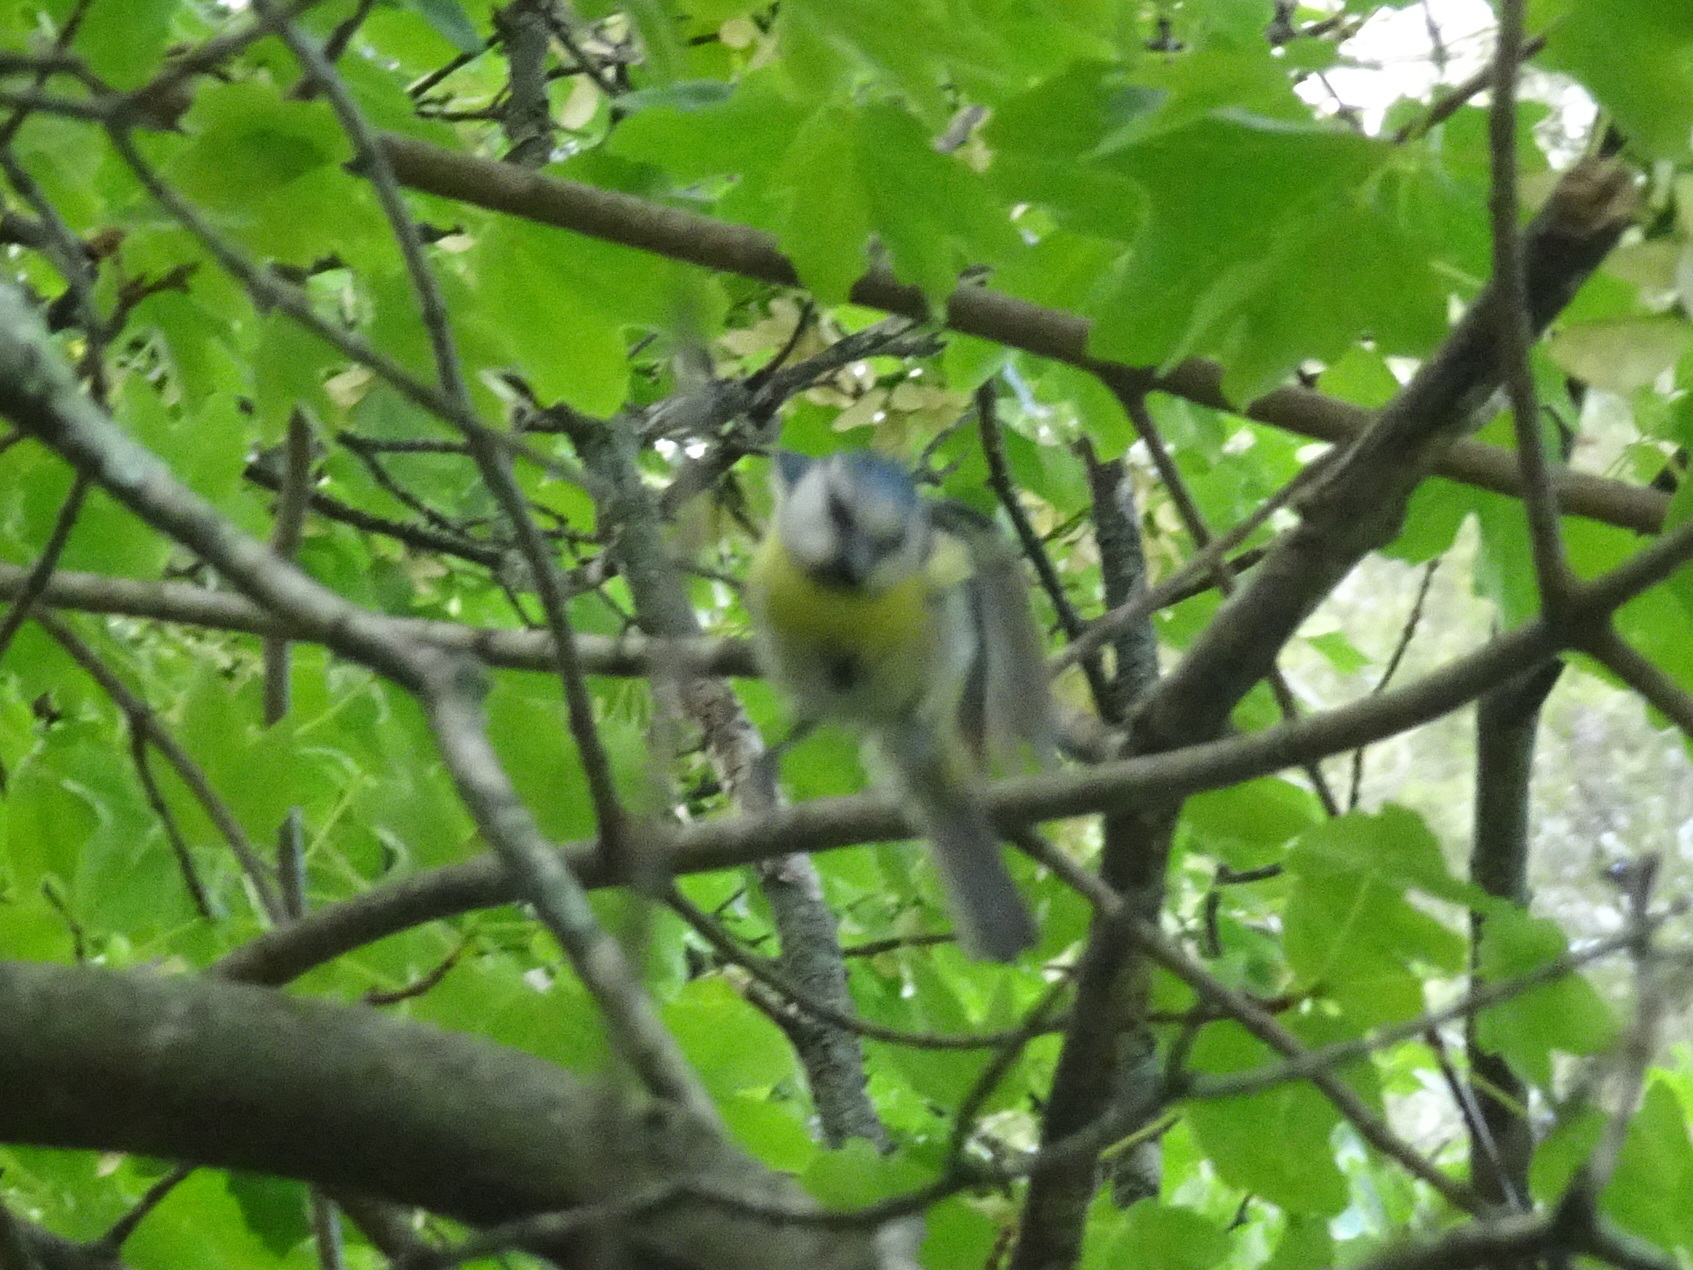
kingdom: Animalia
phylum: Chordata
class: Aves
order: Passeriformes
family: Paridae
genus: Cyanistes
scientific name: Cyanistes caeruleus
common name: Eurasian blue tit
